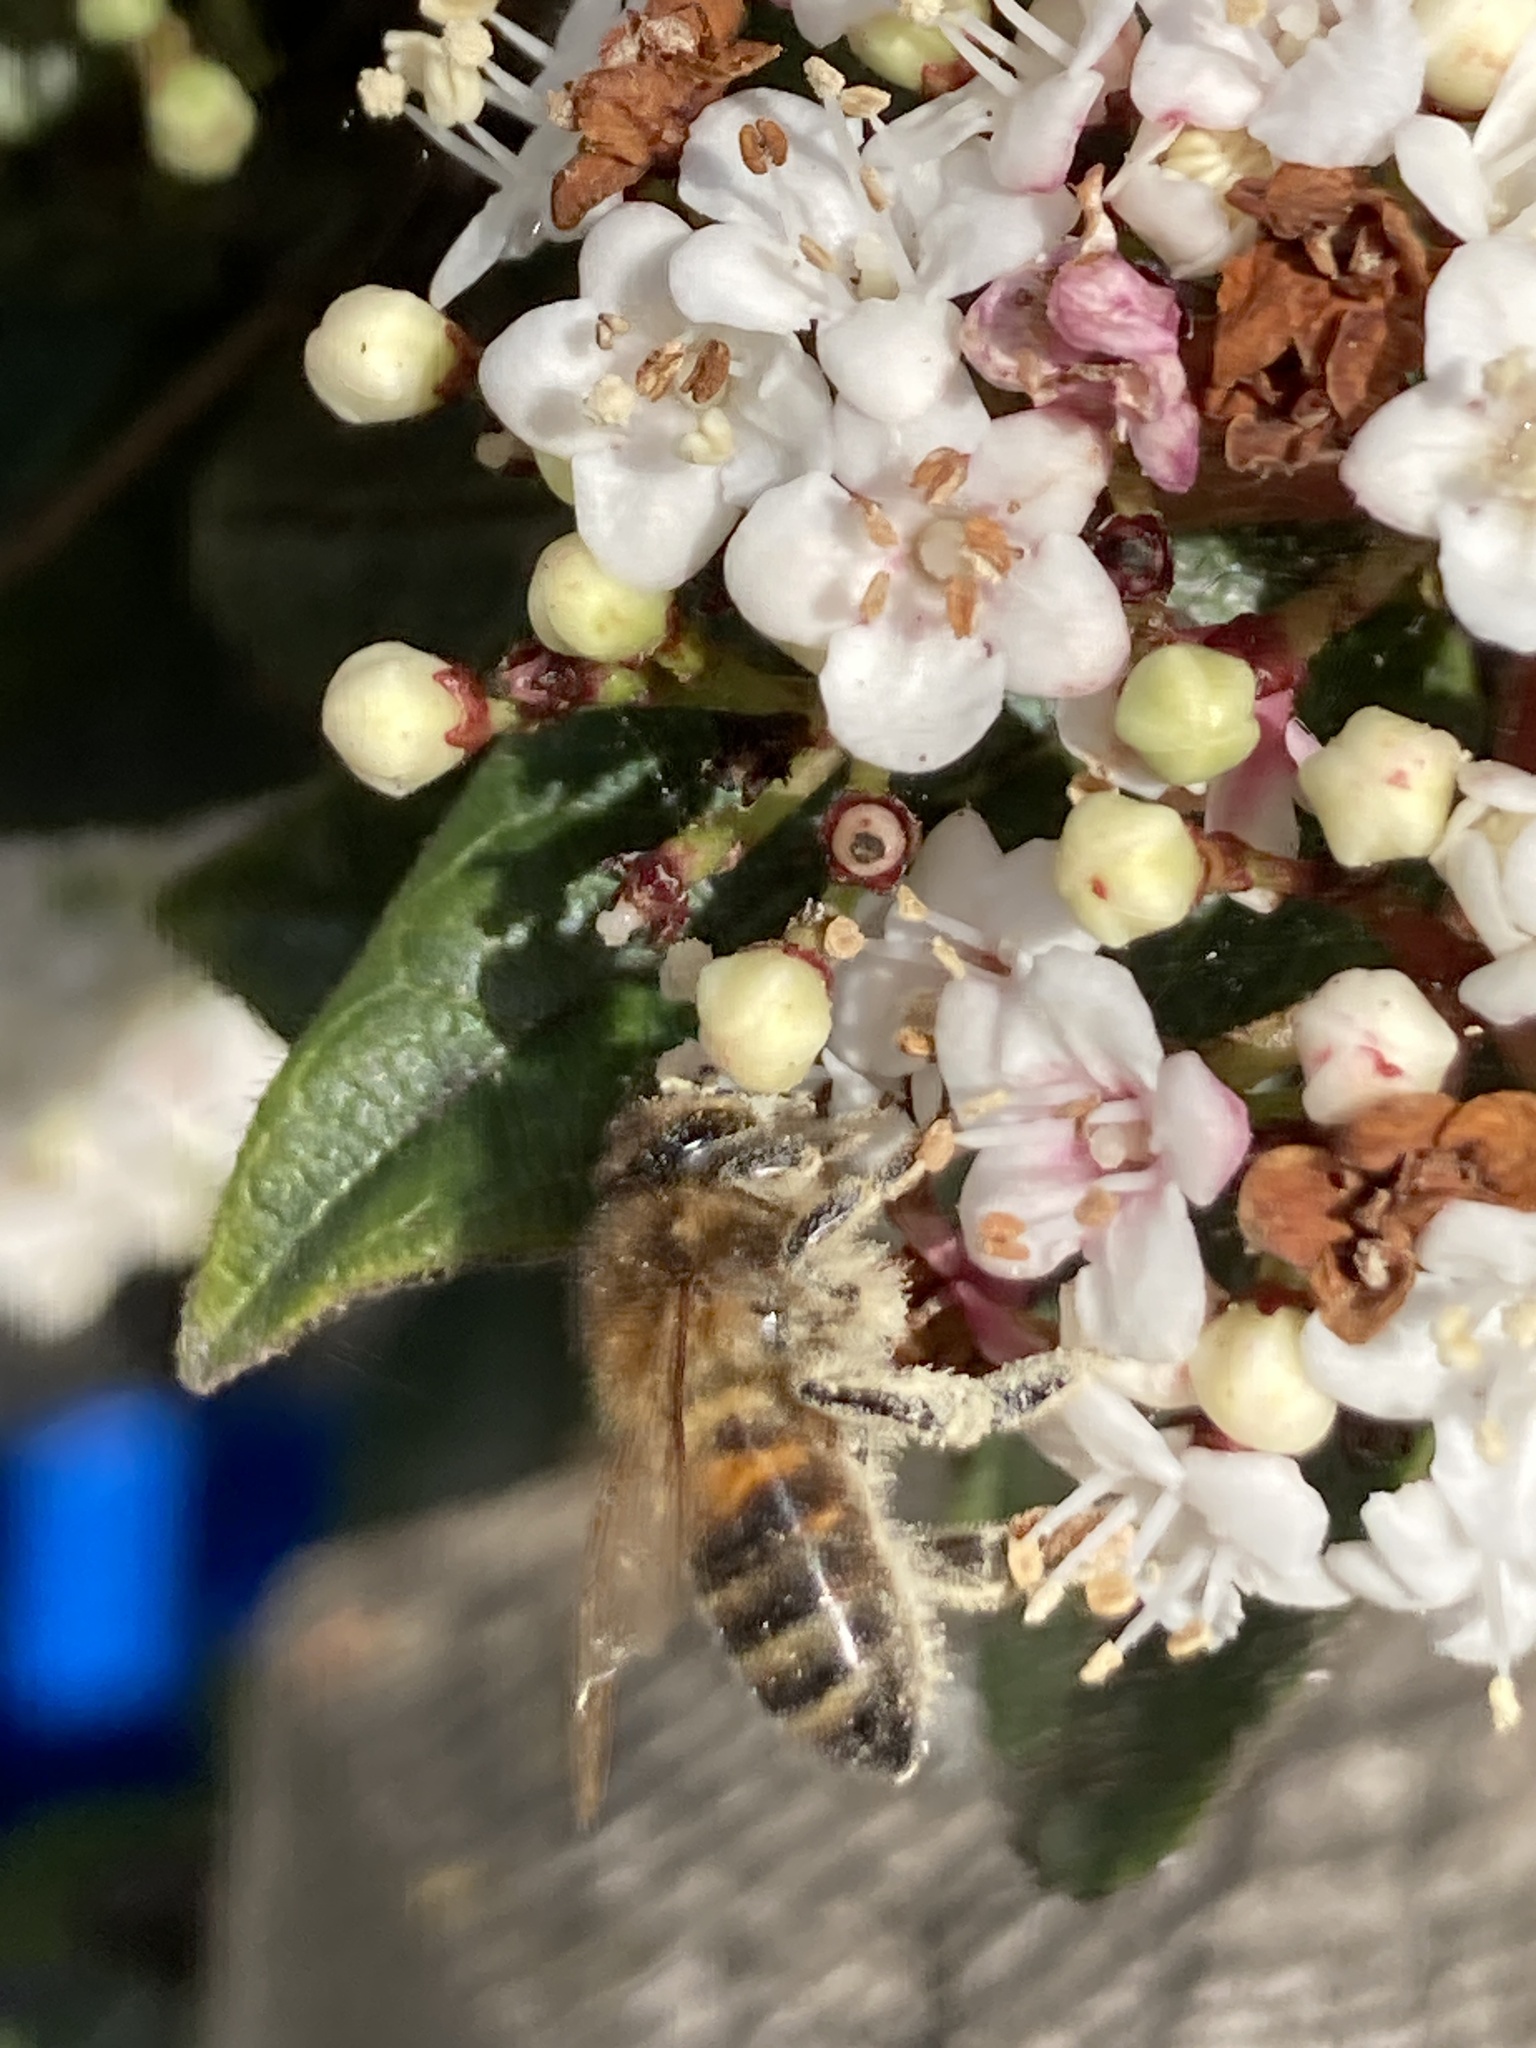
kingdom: Animalia
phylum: Arthropoda
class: Insecta
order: Hymenoptera
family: Apidae
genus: Apis
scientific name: Apis mellifera
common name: Honey bee
